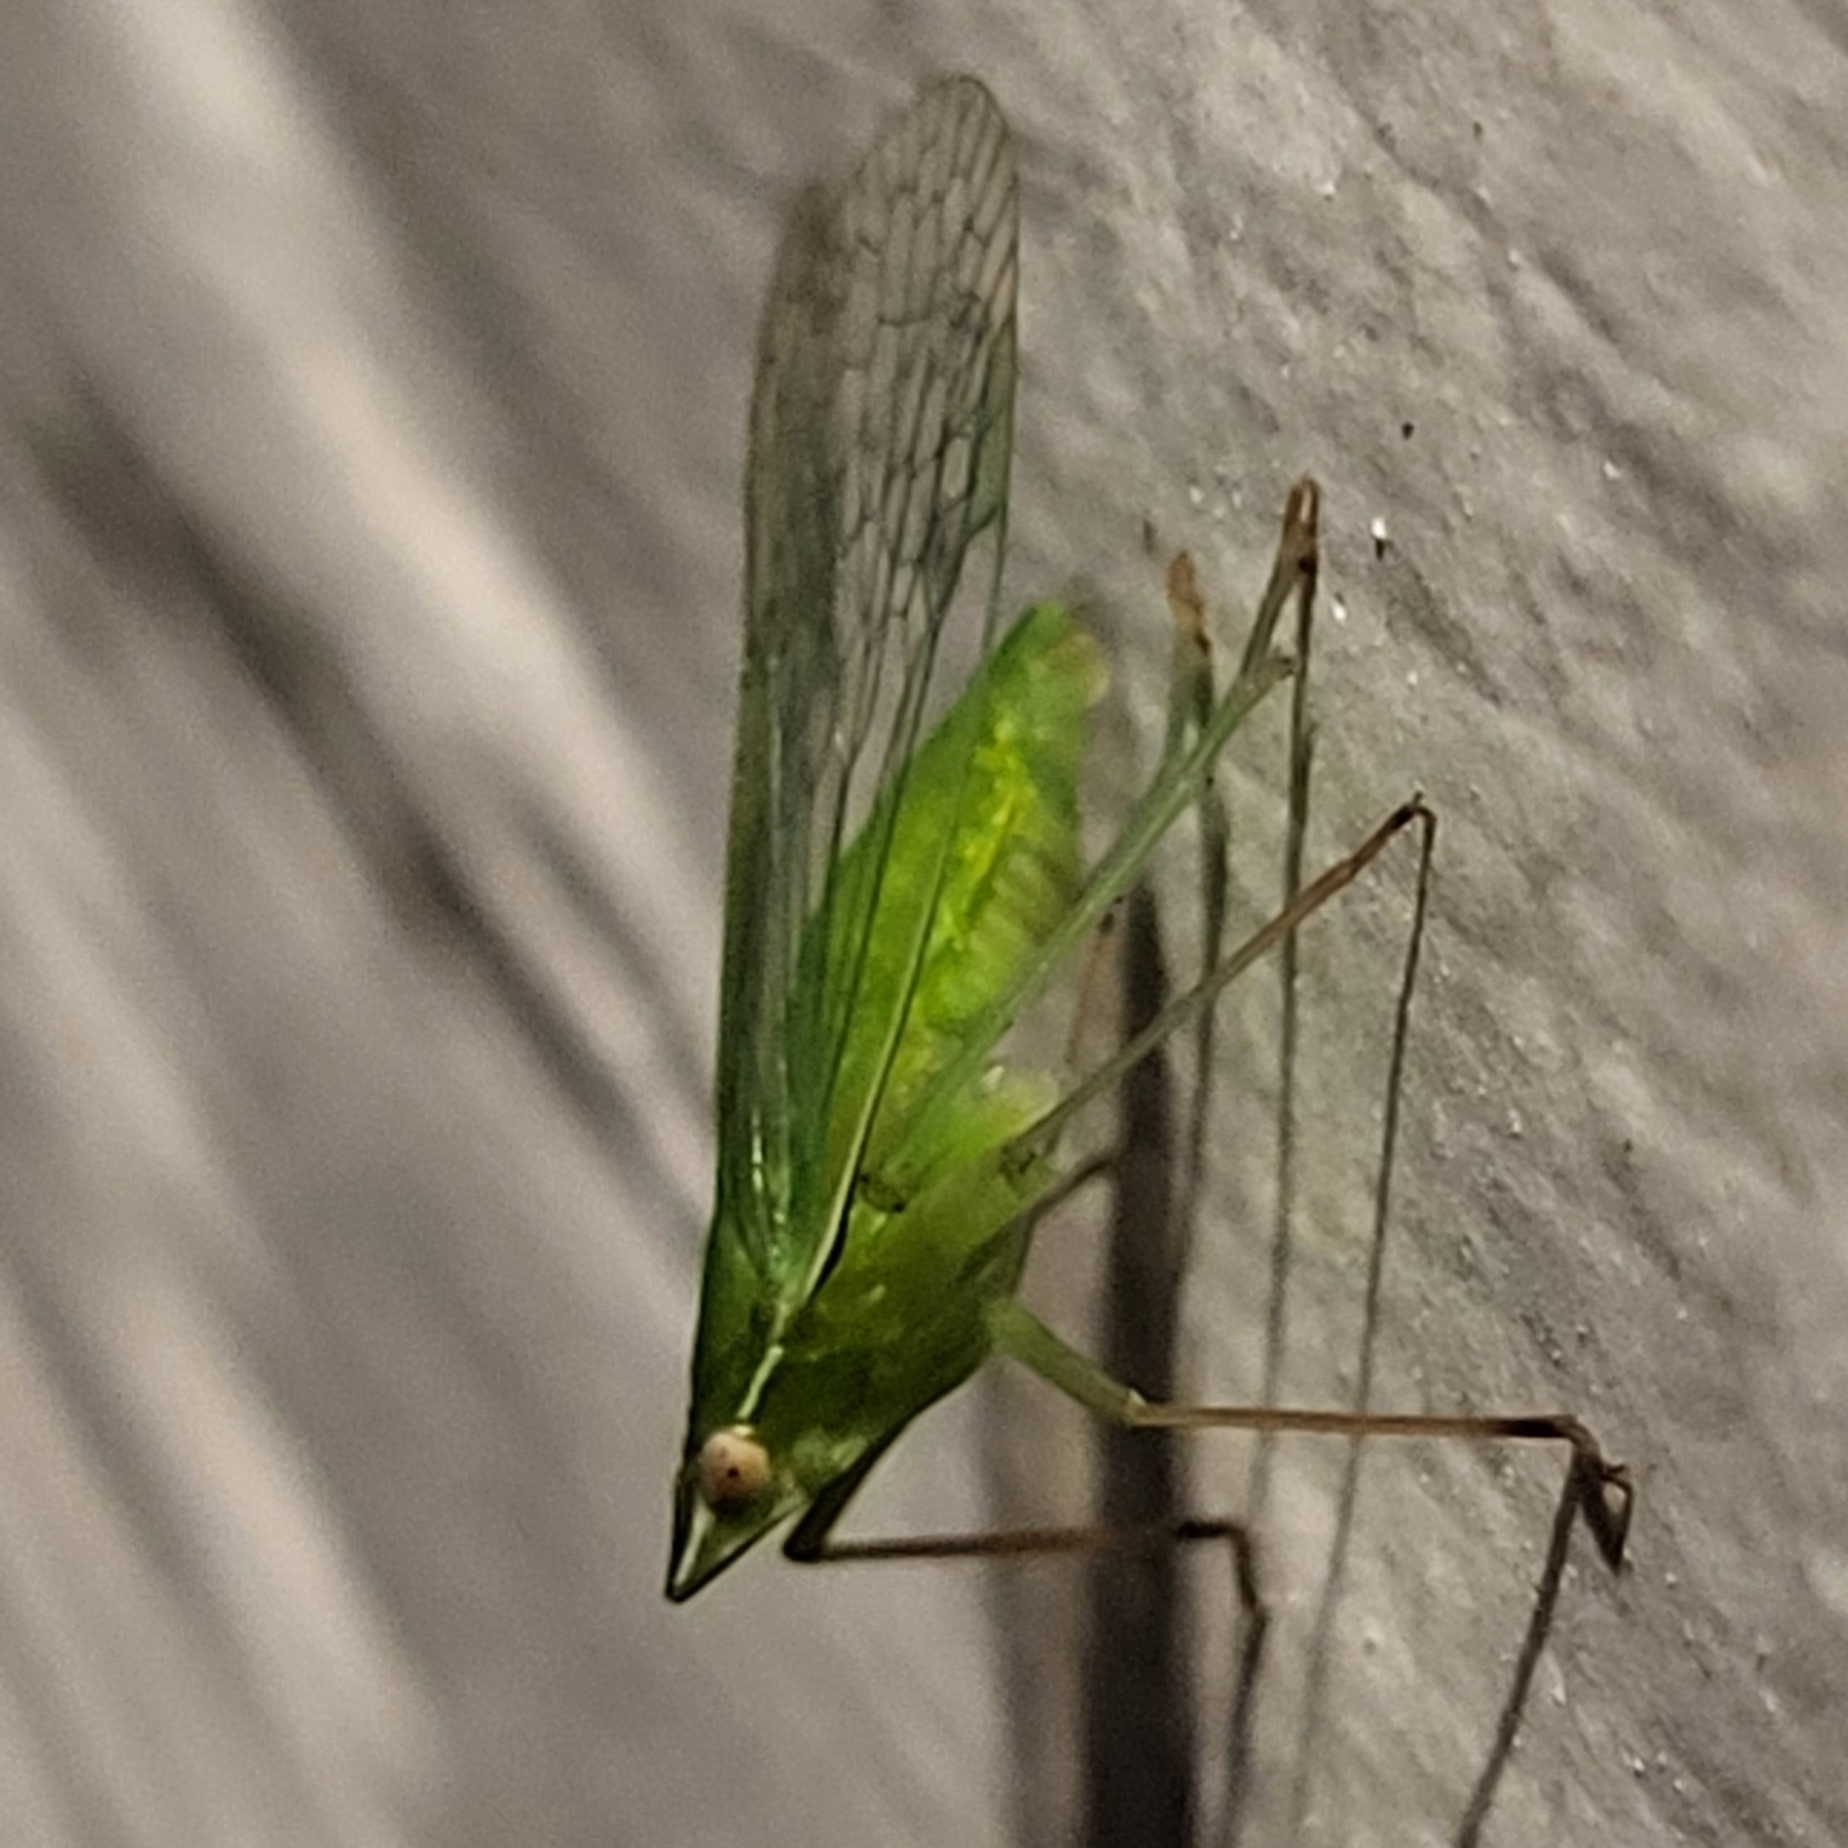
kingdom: Animalia
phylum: Arthropoda
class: Insecta
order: Hemiptera
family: Dictyopharidae
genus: Nersia
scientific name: Nersia florida
